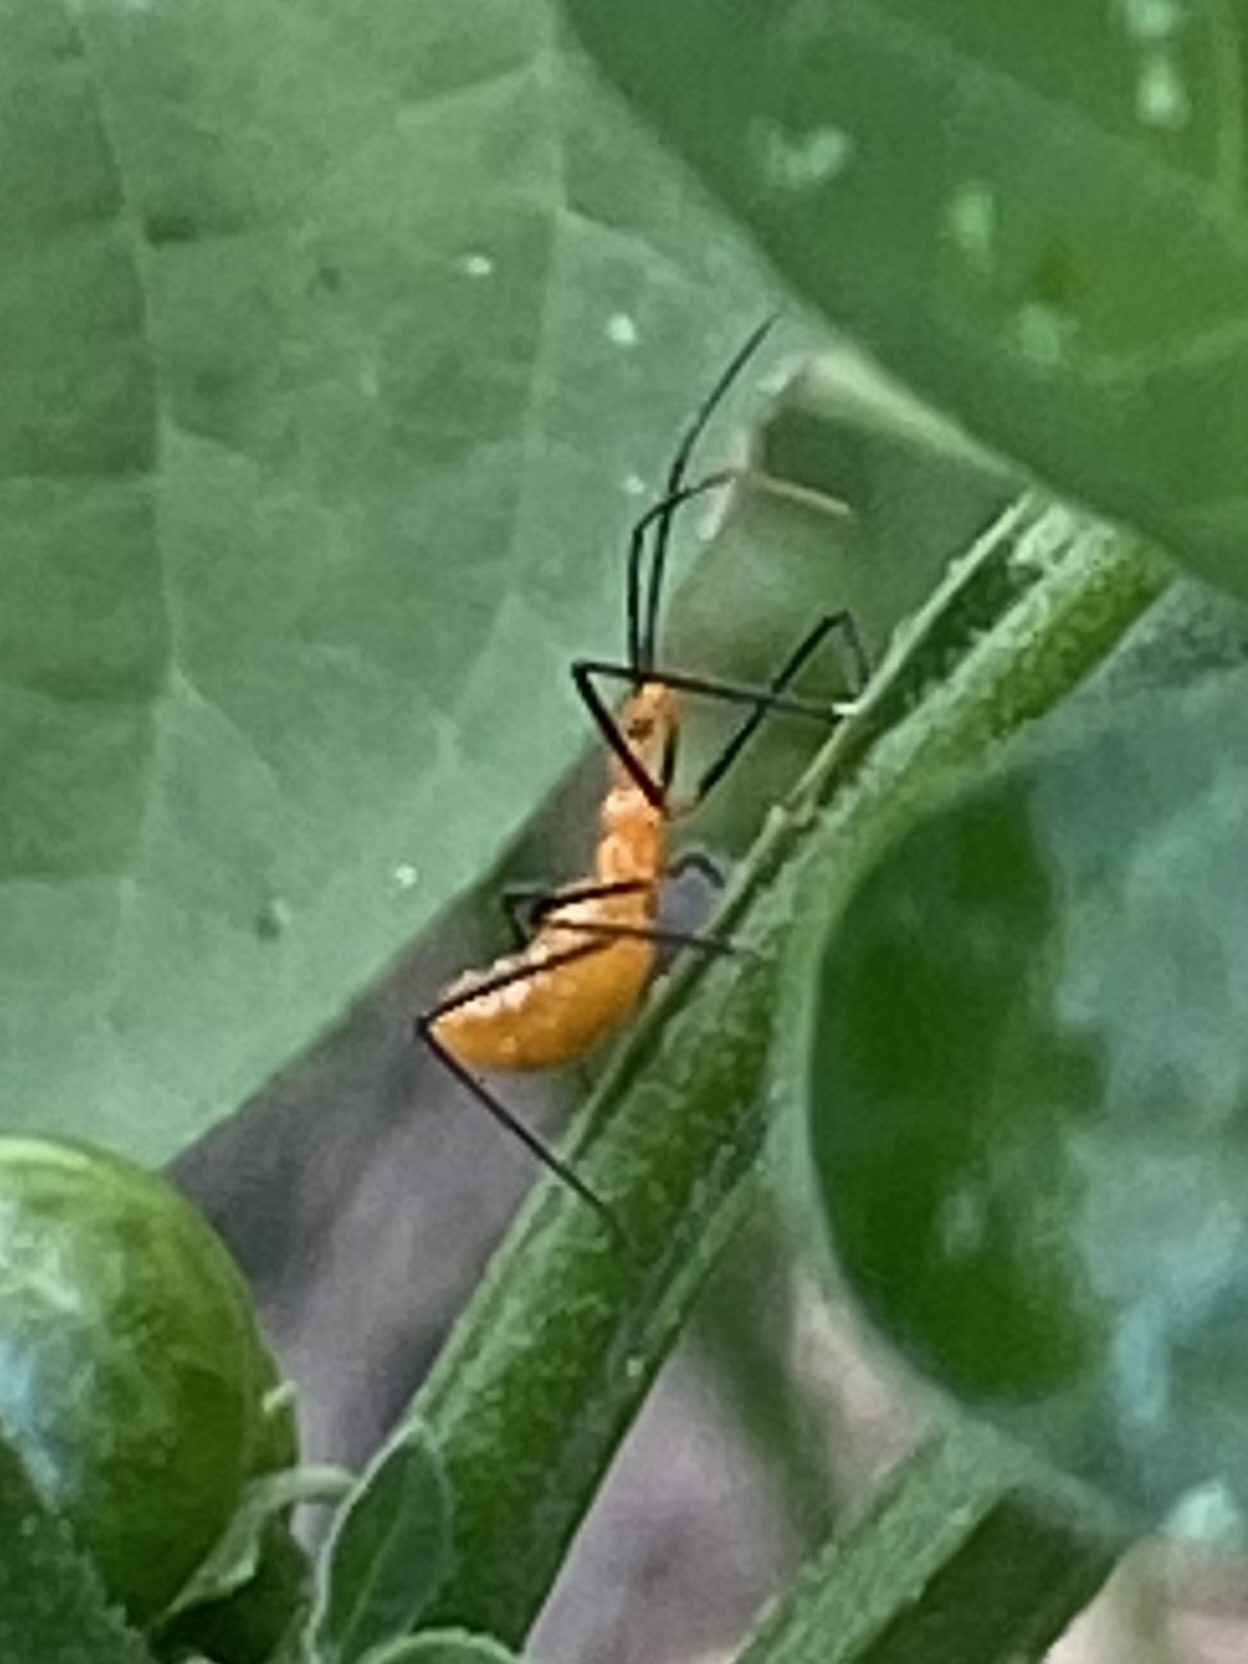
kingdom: Animalia
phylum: Arthropoda
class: Insecta
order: Hemiptera
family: Reduviidae
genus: Zelus
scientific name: Zelus longipes
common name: Milkweed assassin bug
